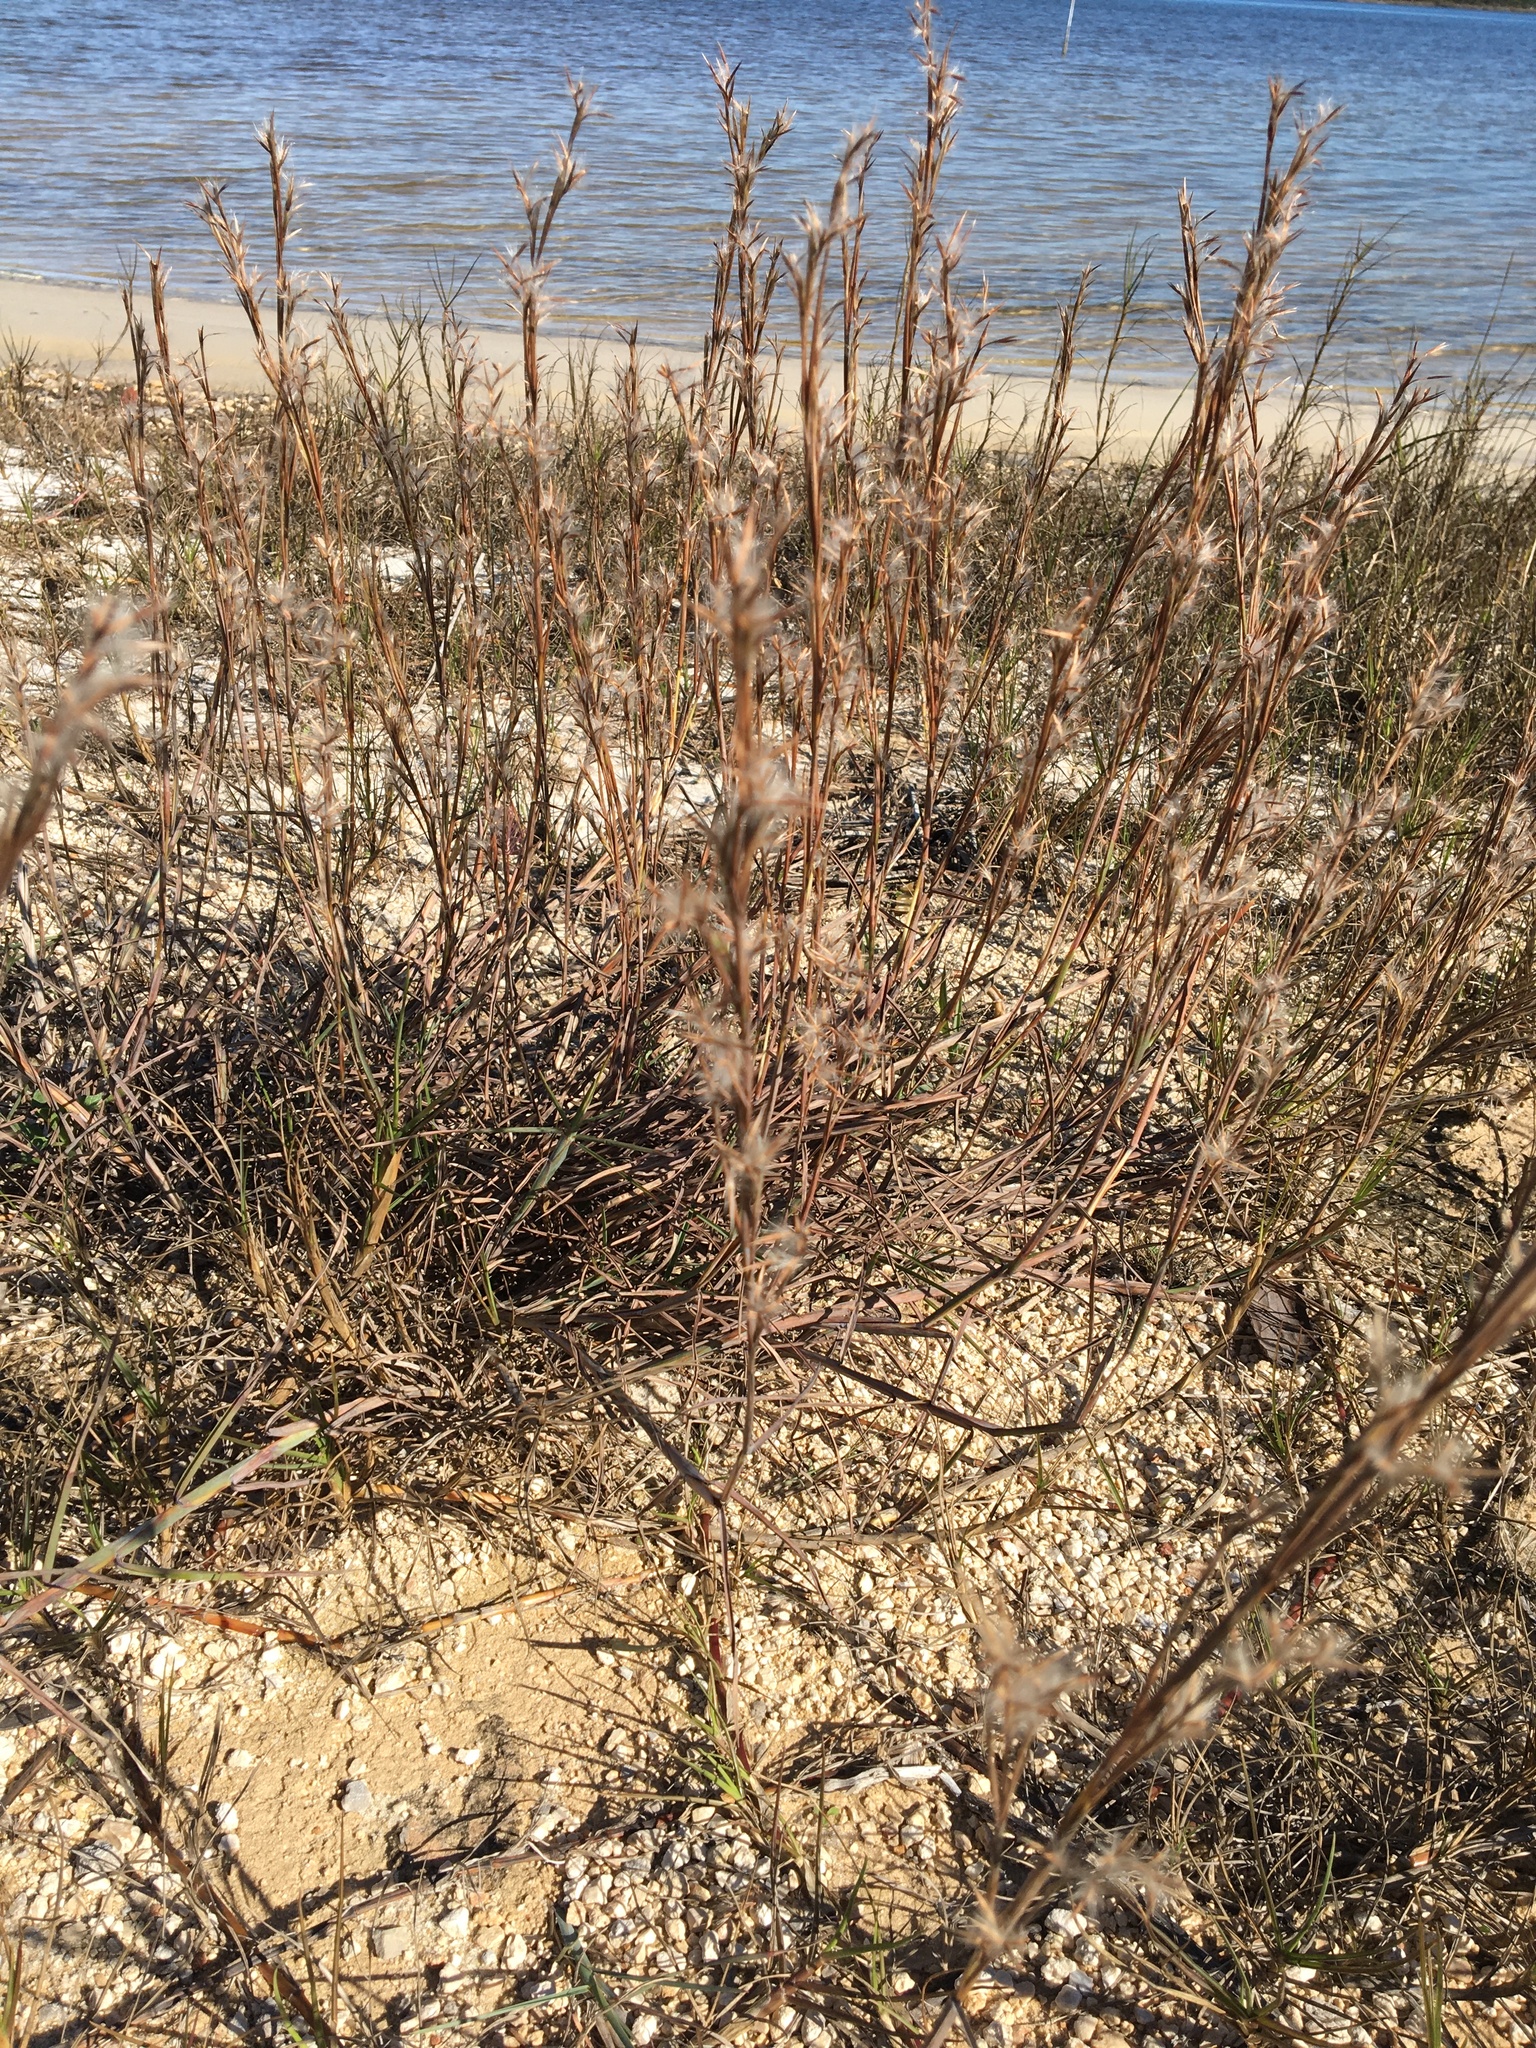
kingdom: Plantae
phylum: Tracheophyta
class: Liliopsida
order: Poales
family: Poaceae
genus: Schizachyrium
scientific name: Schizachyrium maritimum
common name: Gulf bluestem
